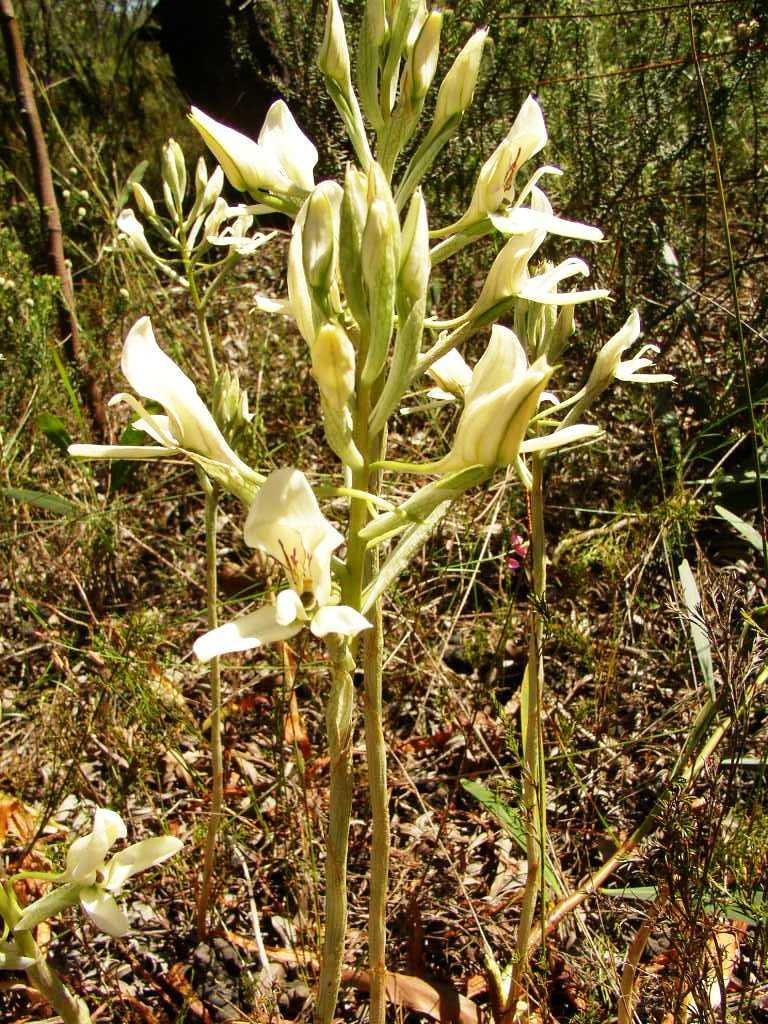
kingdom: Plantae
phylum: Tracheophyta
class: Liliopsida
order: Asparagales
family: Orchidaceae
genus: Disa
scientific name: Disa draconis
